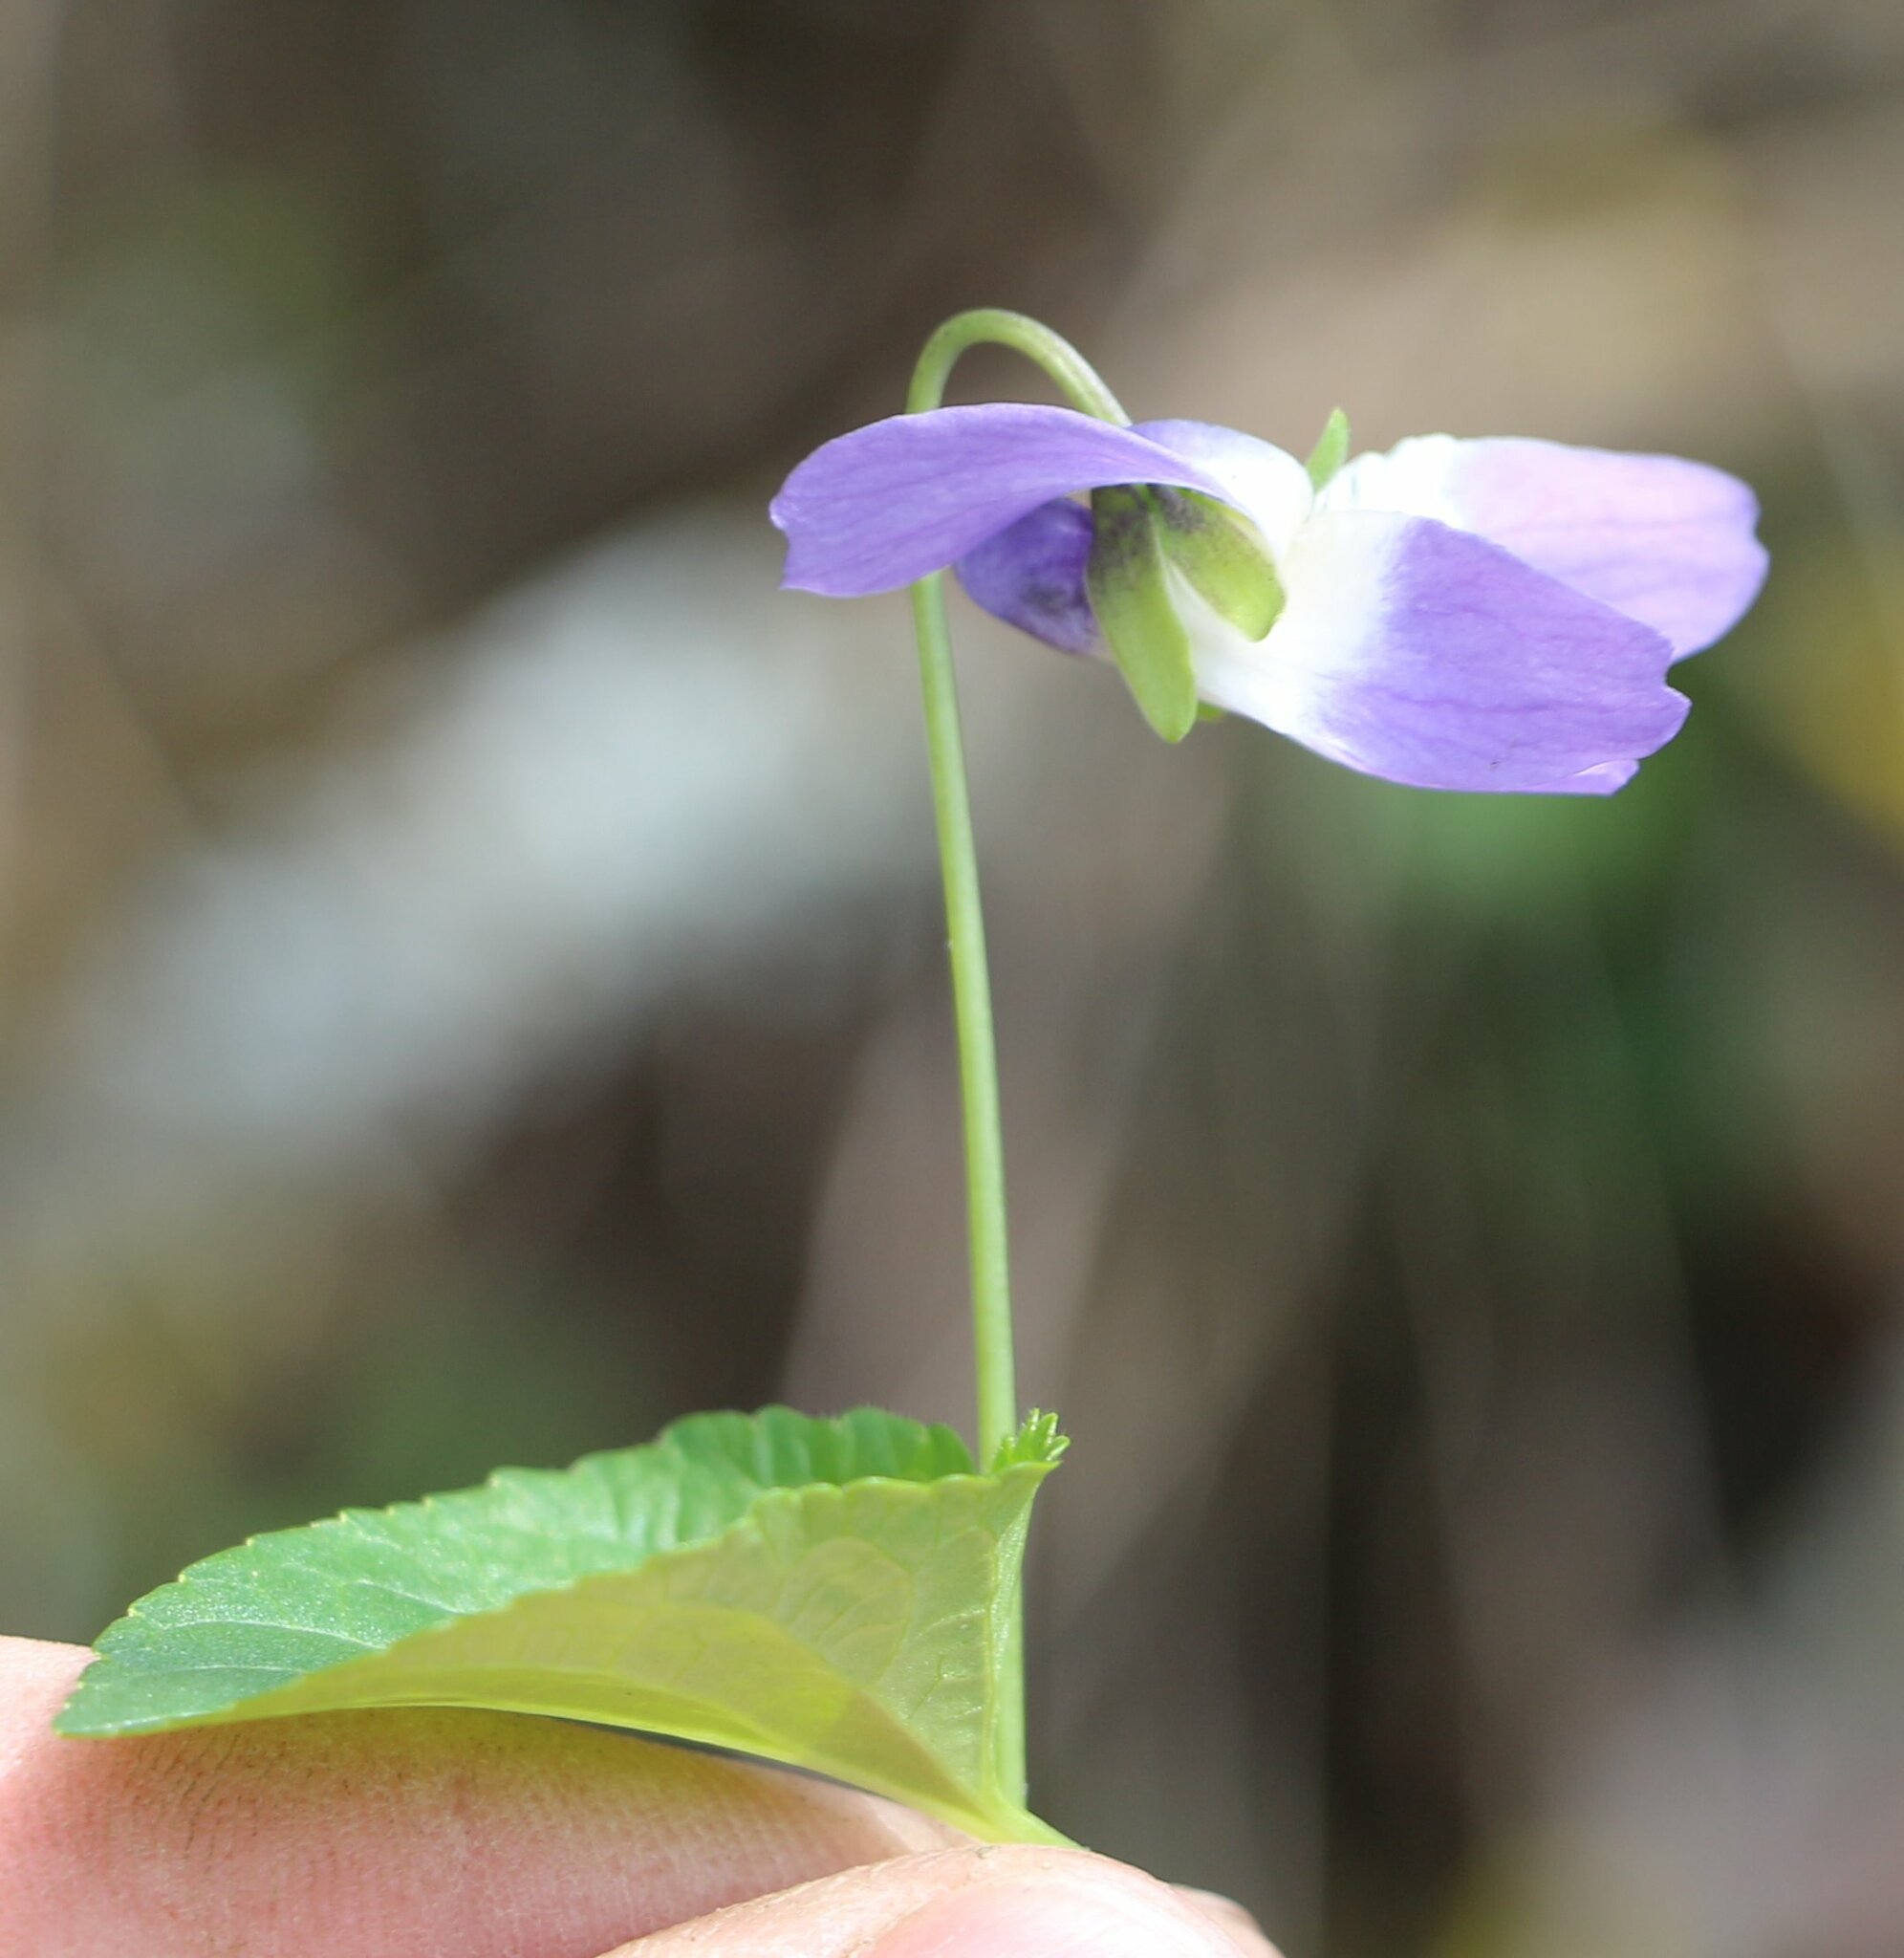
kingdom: Plantae
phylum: Tracheophyta
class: Magnoliopsida
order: Malpighiales
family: Violaceae
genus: Viola
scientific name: Viola suavis
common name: Russian violet
